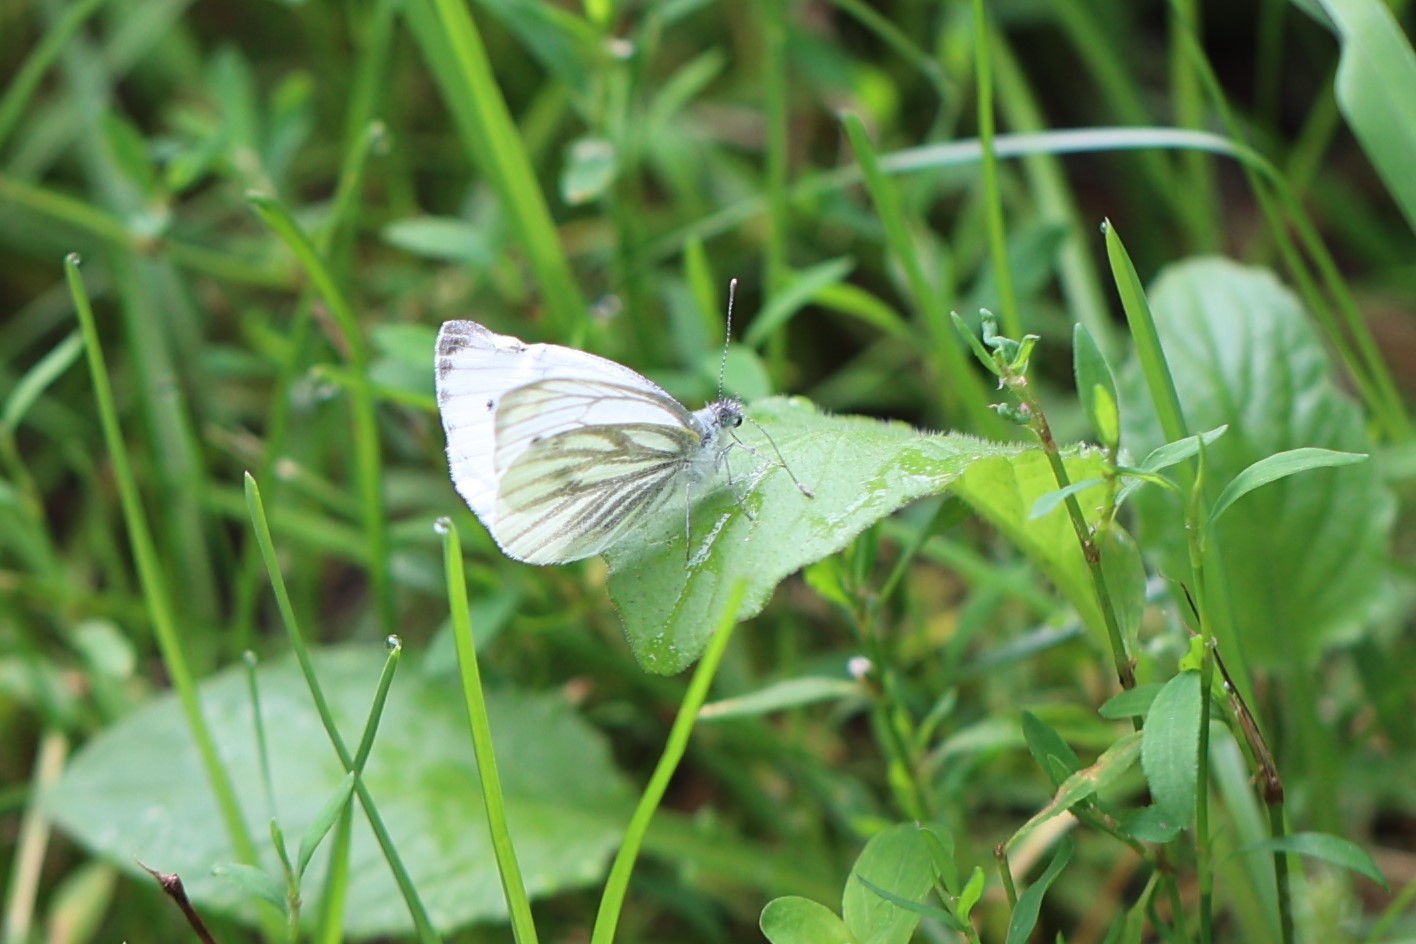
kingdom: Animalia
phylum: Arthropoda
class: Insecta
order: Lepidoptera
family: Pieridae
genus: Pieris
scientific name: Pieris napi
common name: Green-veined white
